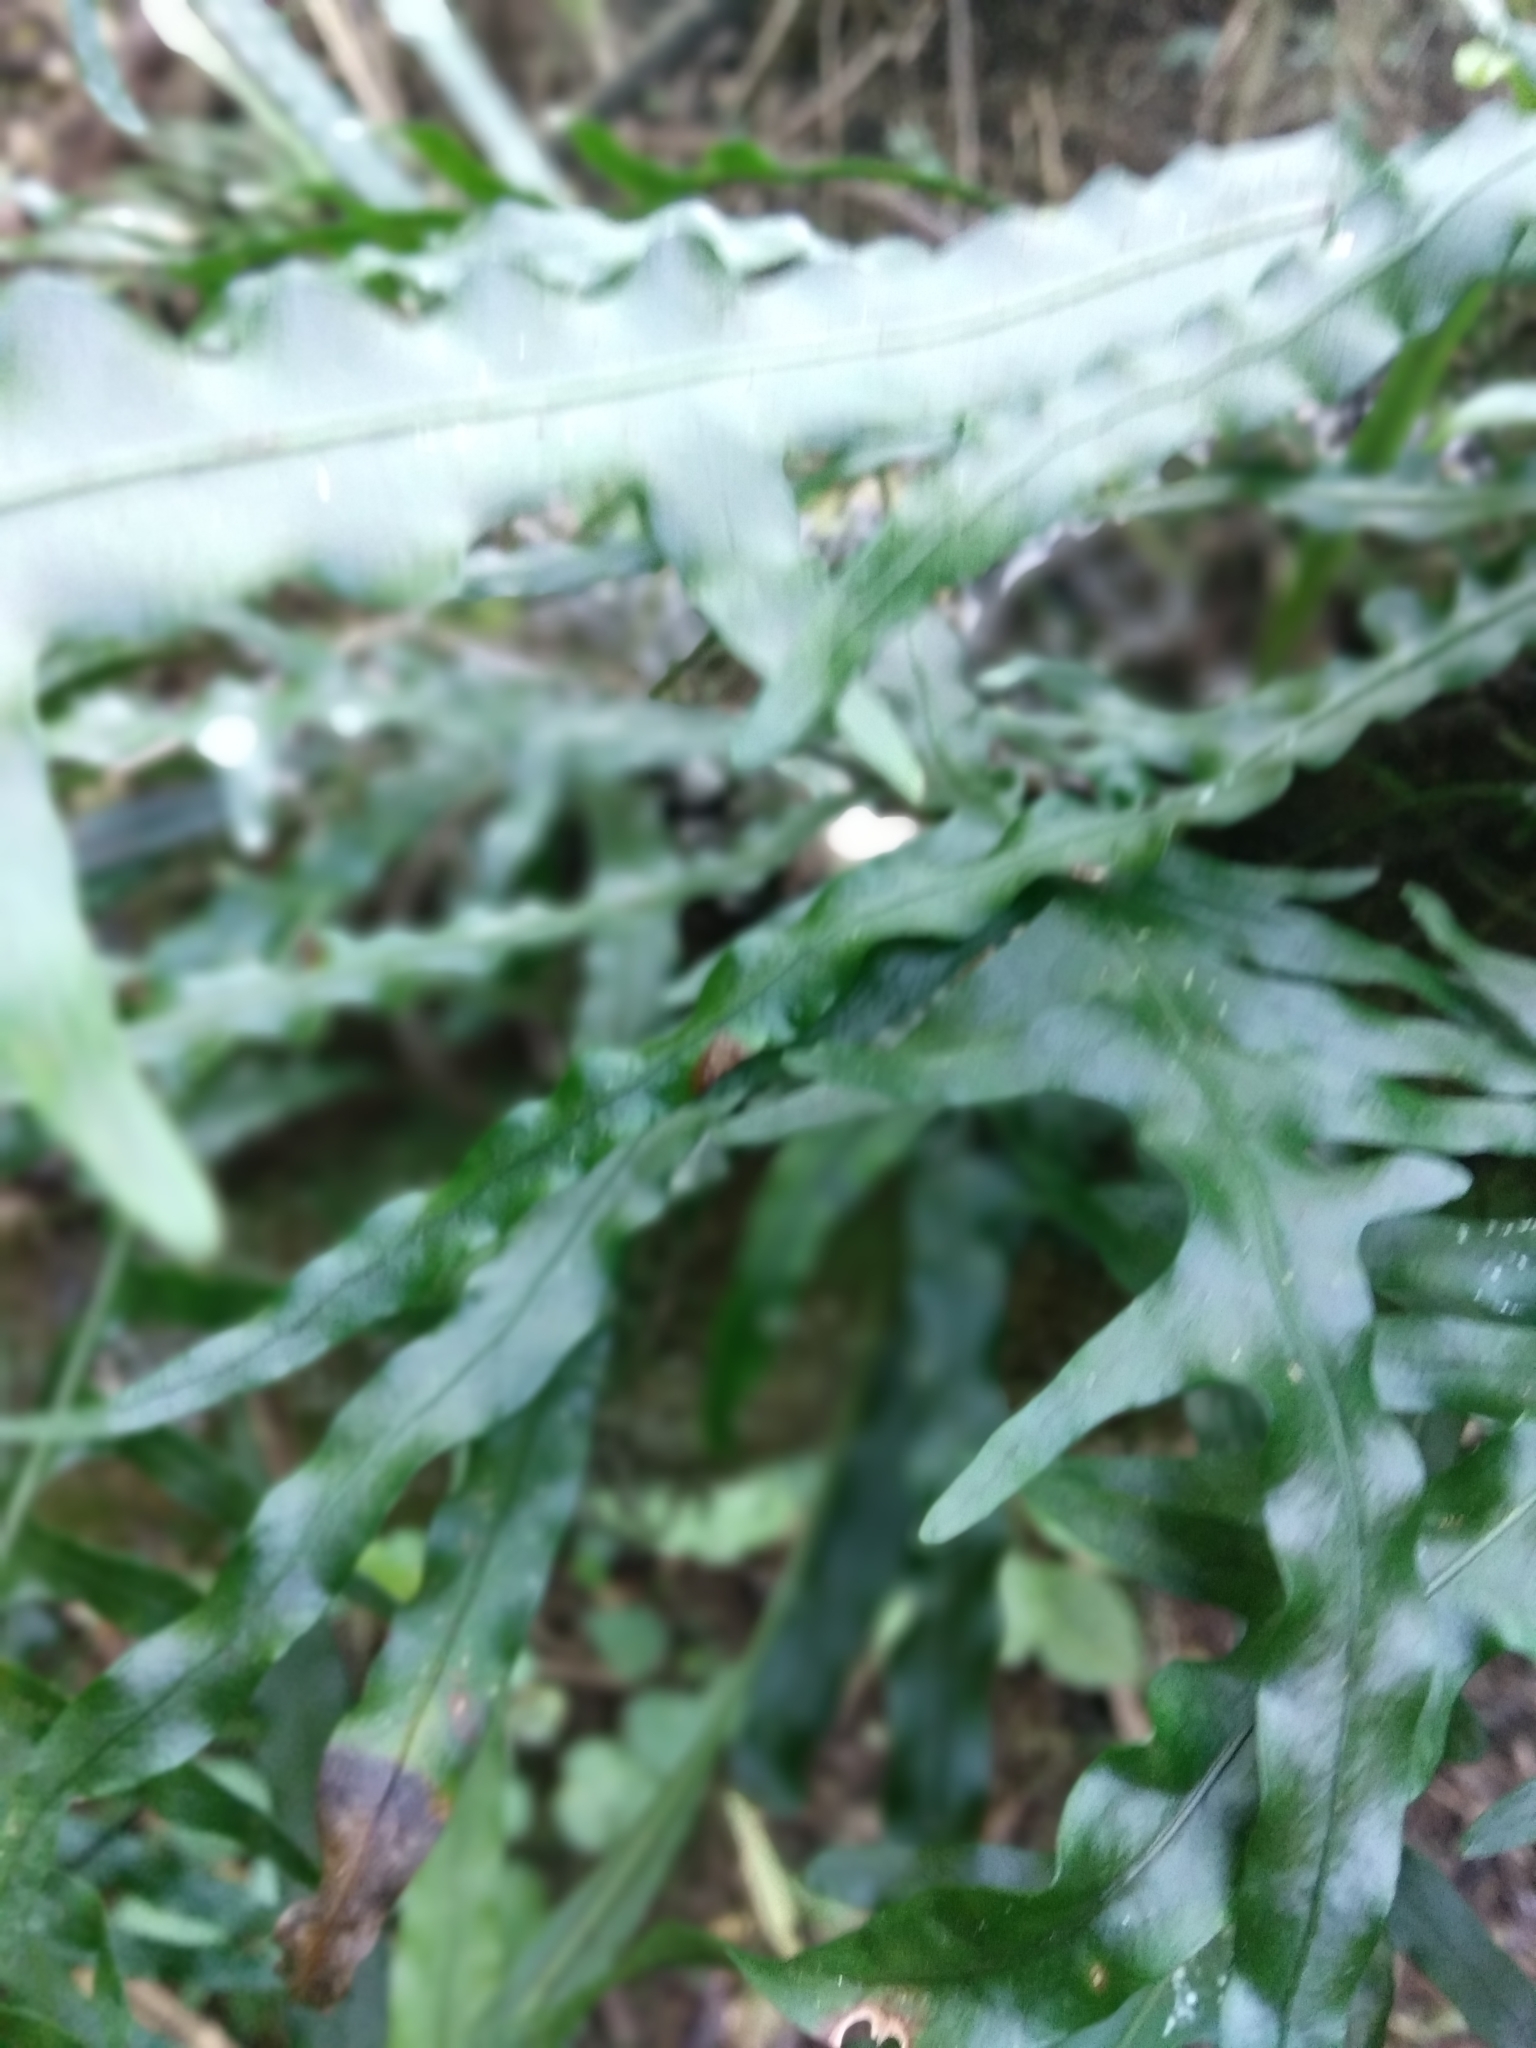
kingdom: Plantae
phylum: Tracheophyta
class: Polypodiopsida
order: Polypodiales
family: Polypodiaceae
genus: Lecanopteris
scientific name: Lecanopteris scandens
